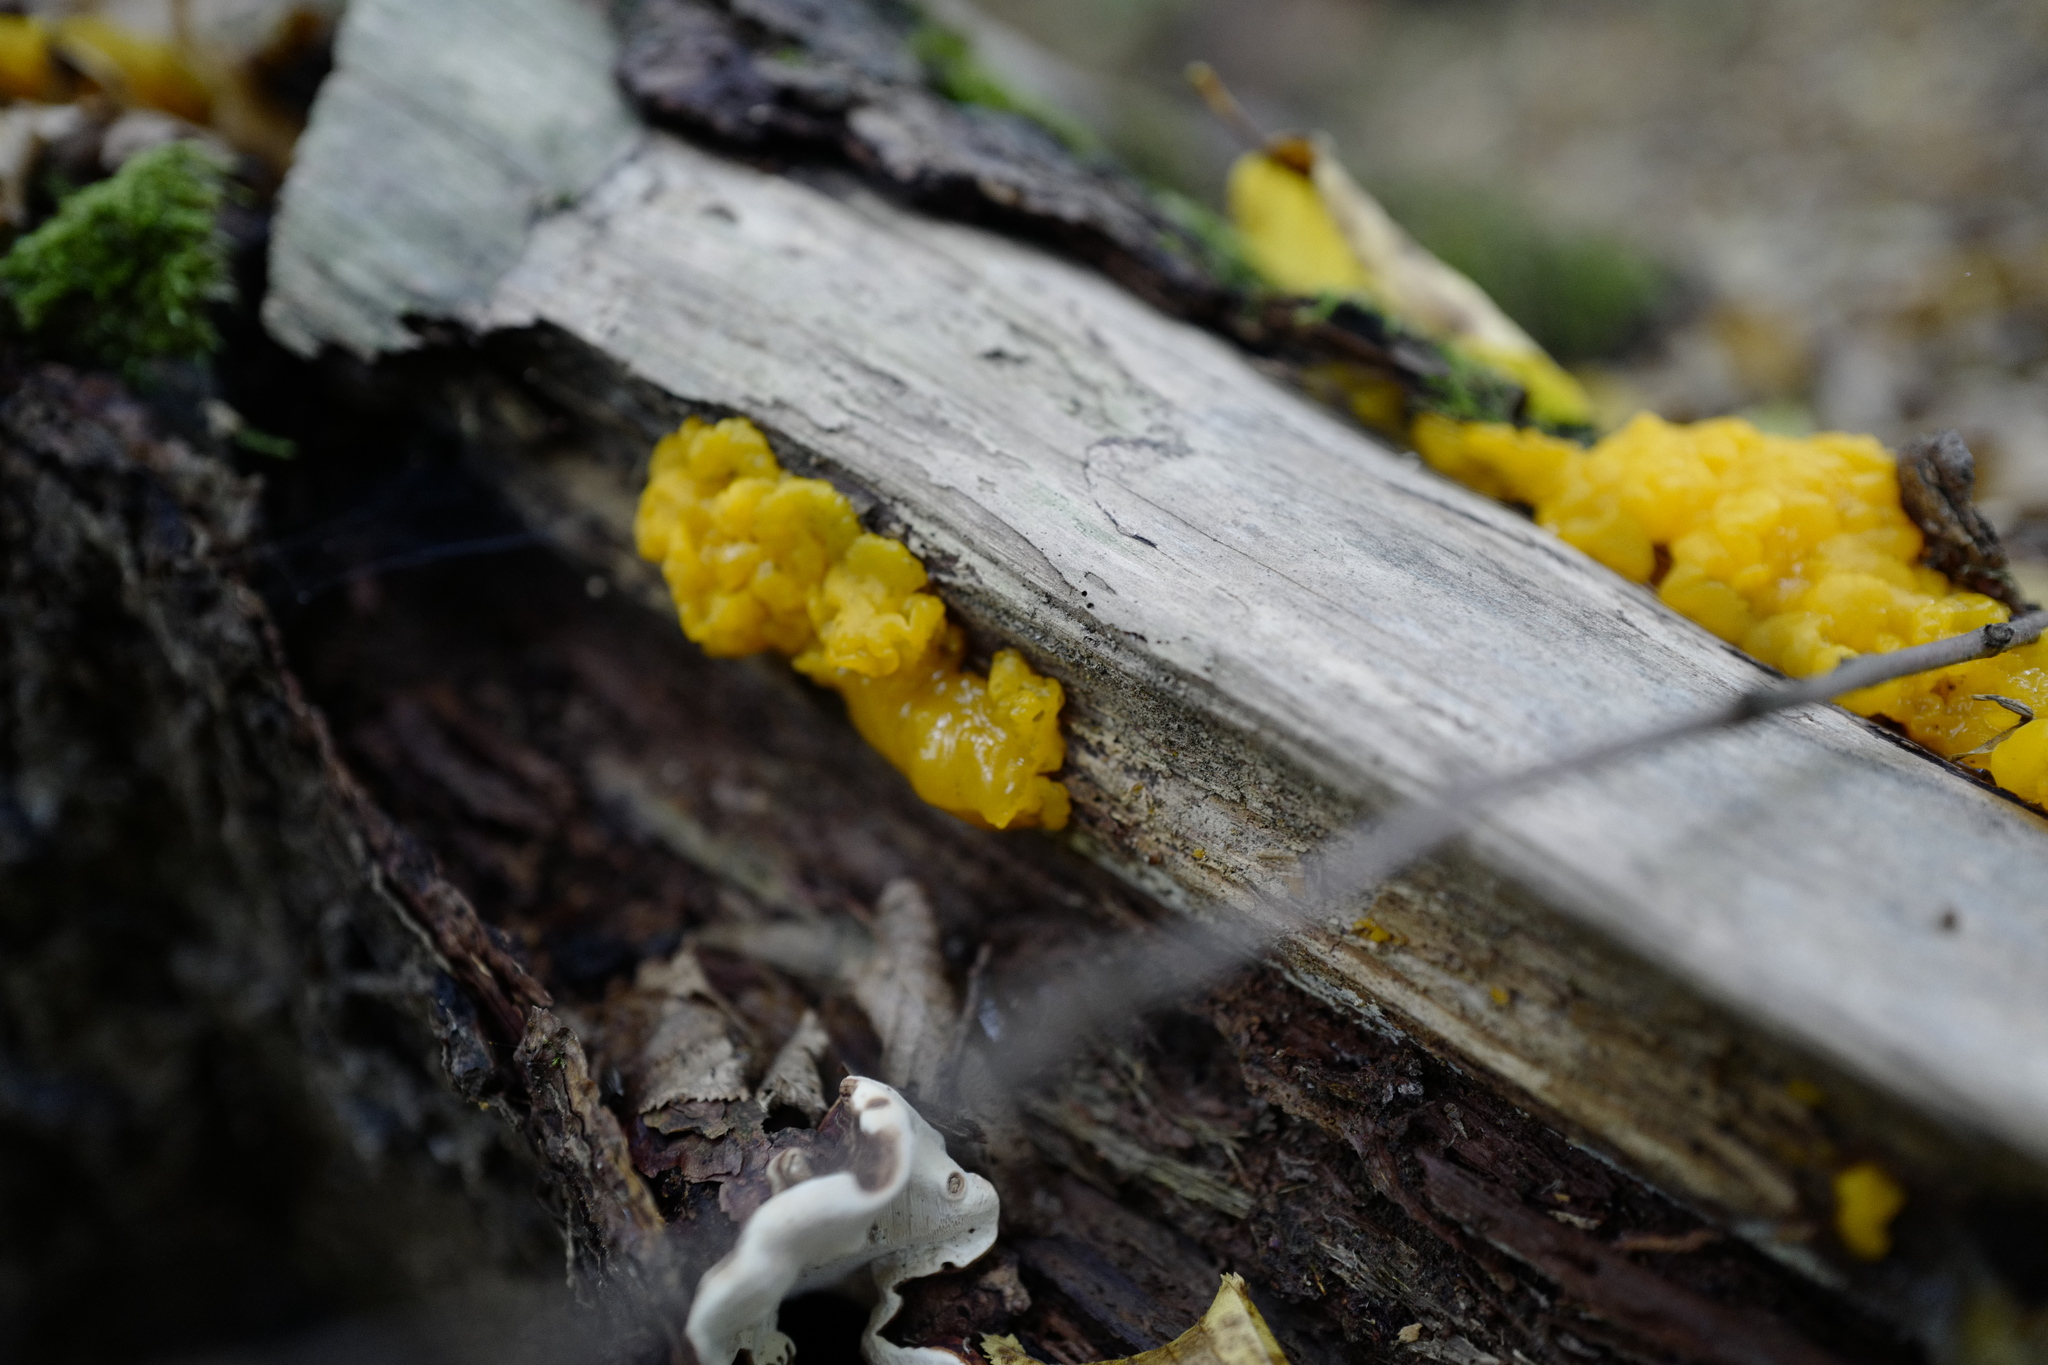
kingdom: Fungi
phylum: Basidiomycota
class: Dacrymycetes
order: Dacrymycetales
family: Dacrymycetaceae
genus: Dacrymyces
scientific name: Dacrymyces chrysospermus
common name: Orange jelly spot
